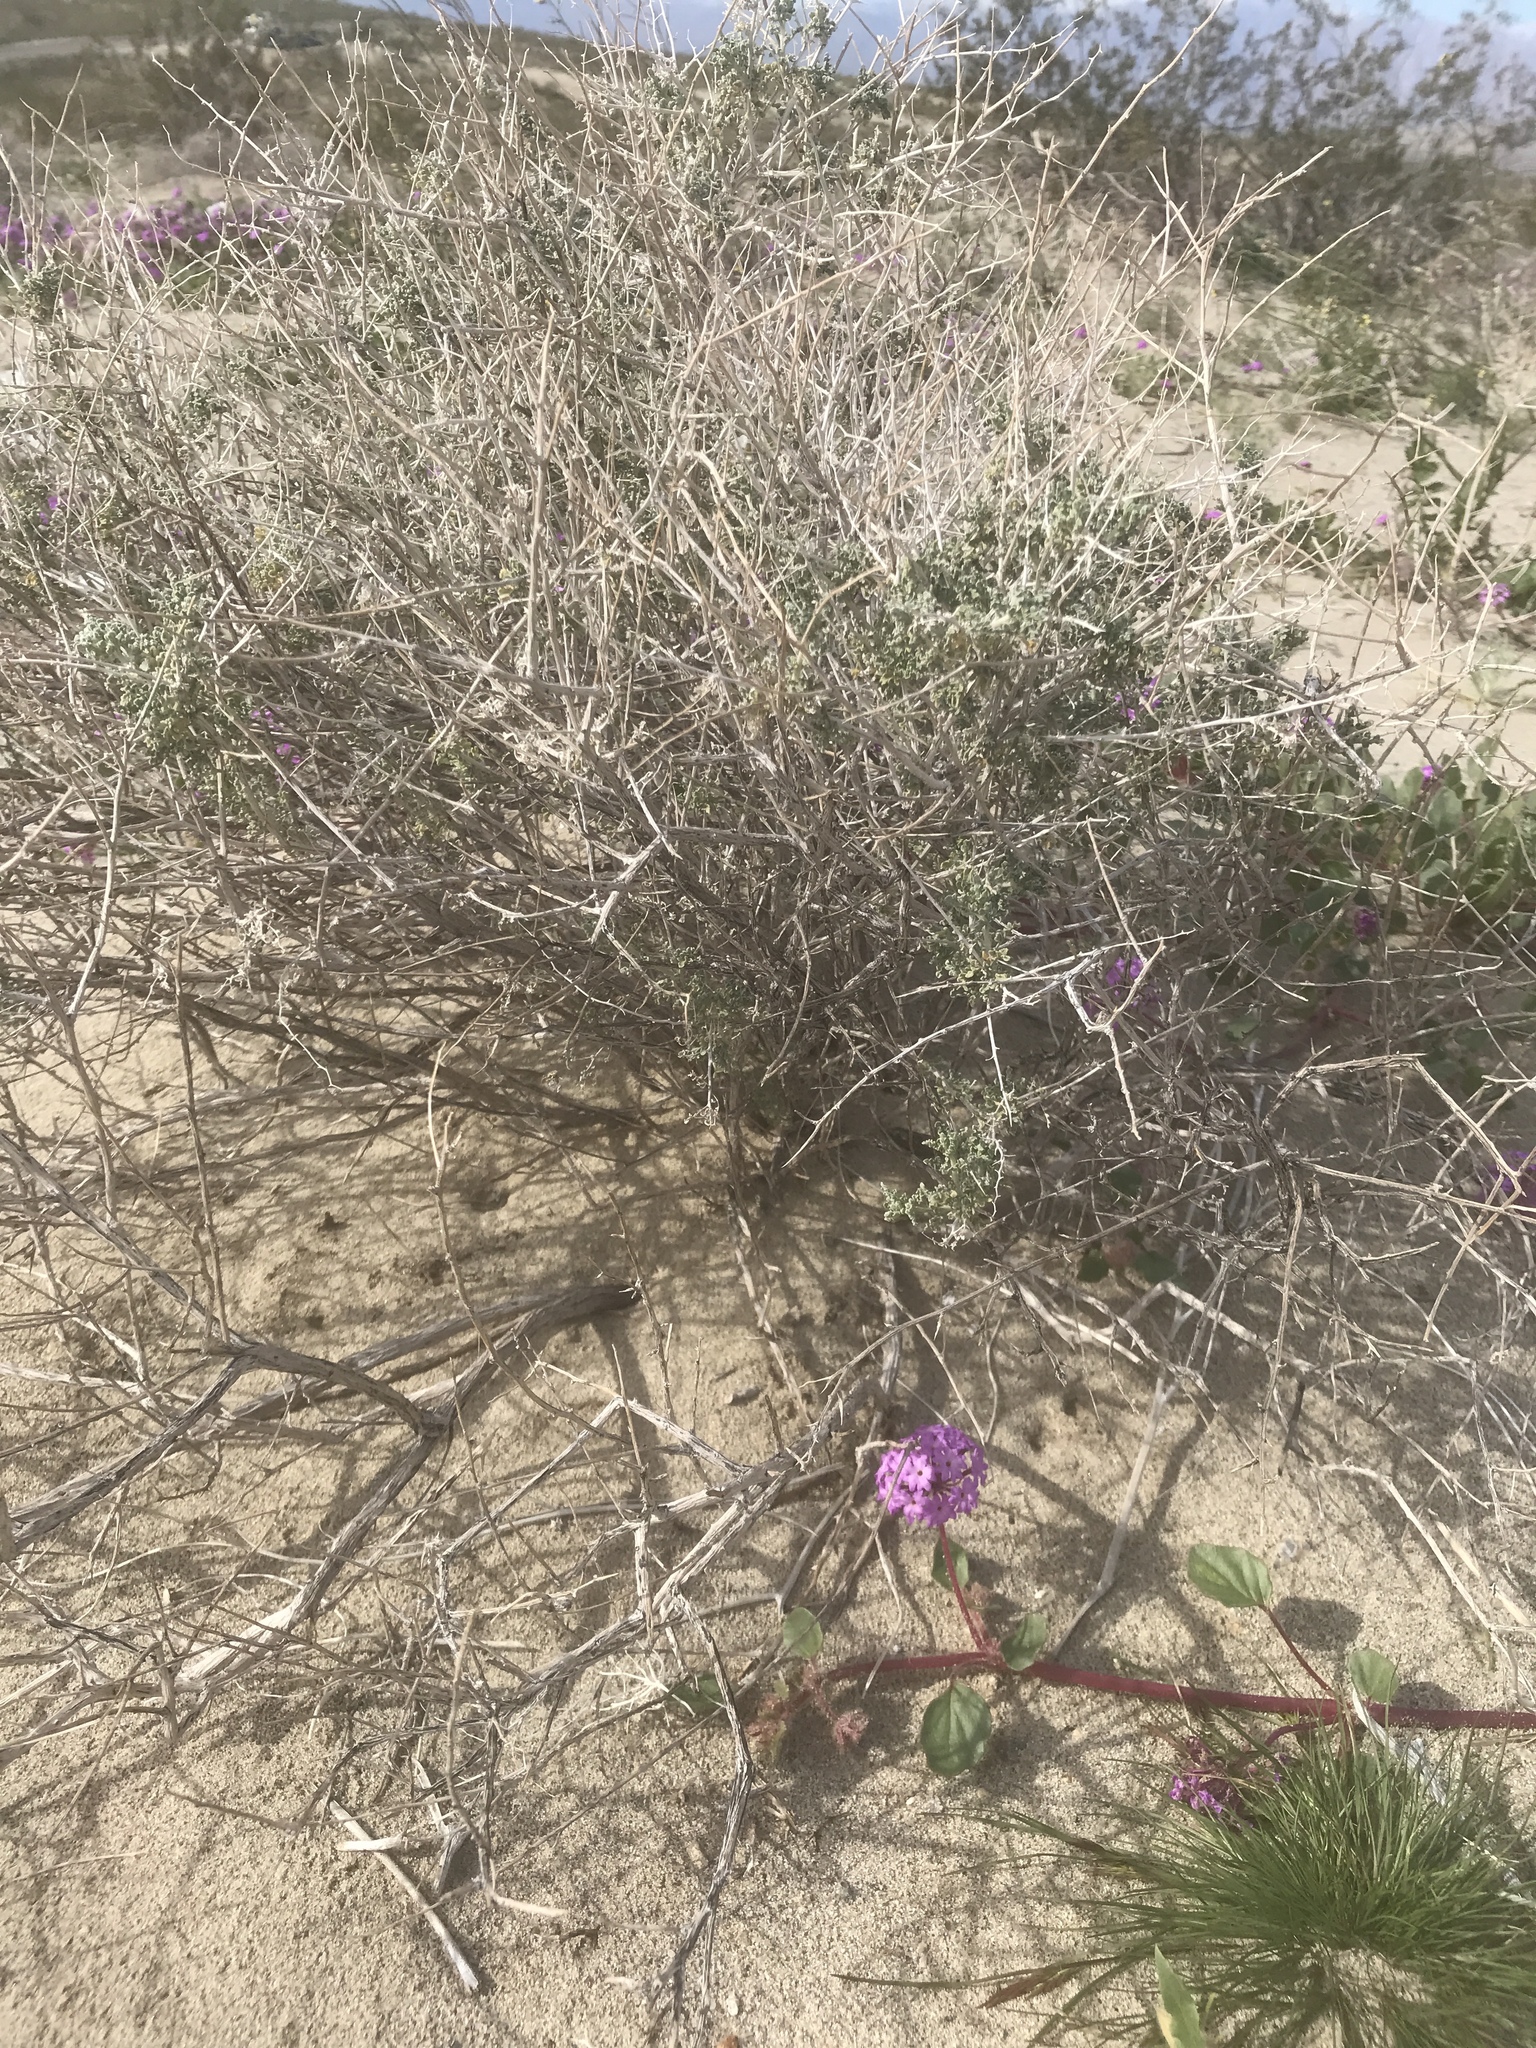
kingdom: Plantae
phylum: Tracheophyta
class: Magnoliopsida
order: Asterales
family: Asteraceae
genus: Ambrosia
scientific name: Ambrosia dumosa
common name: Bur-sage
